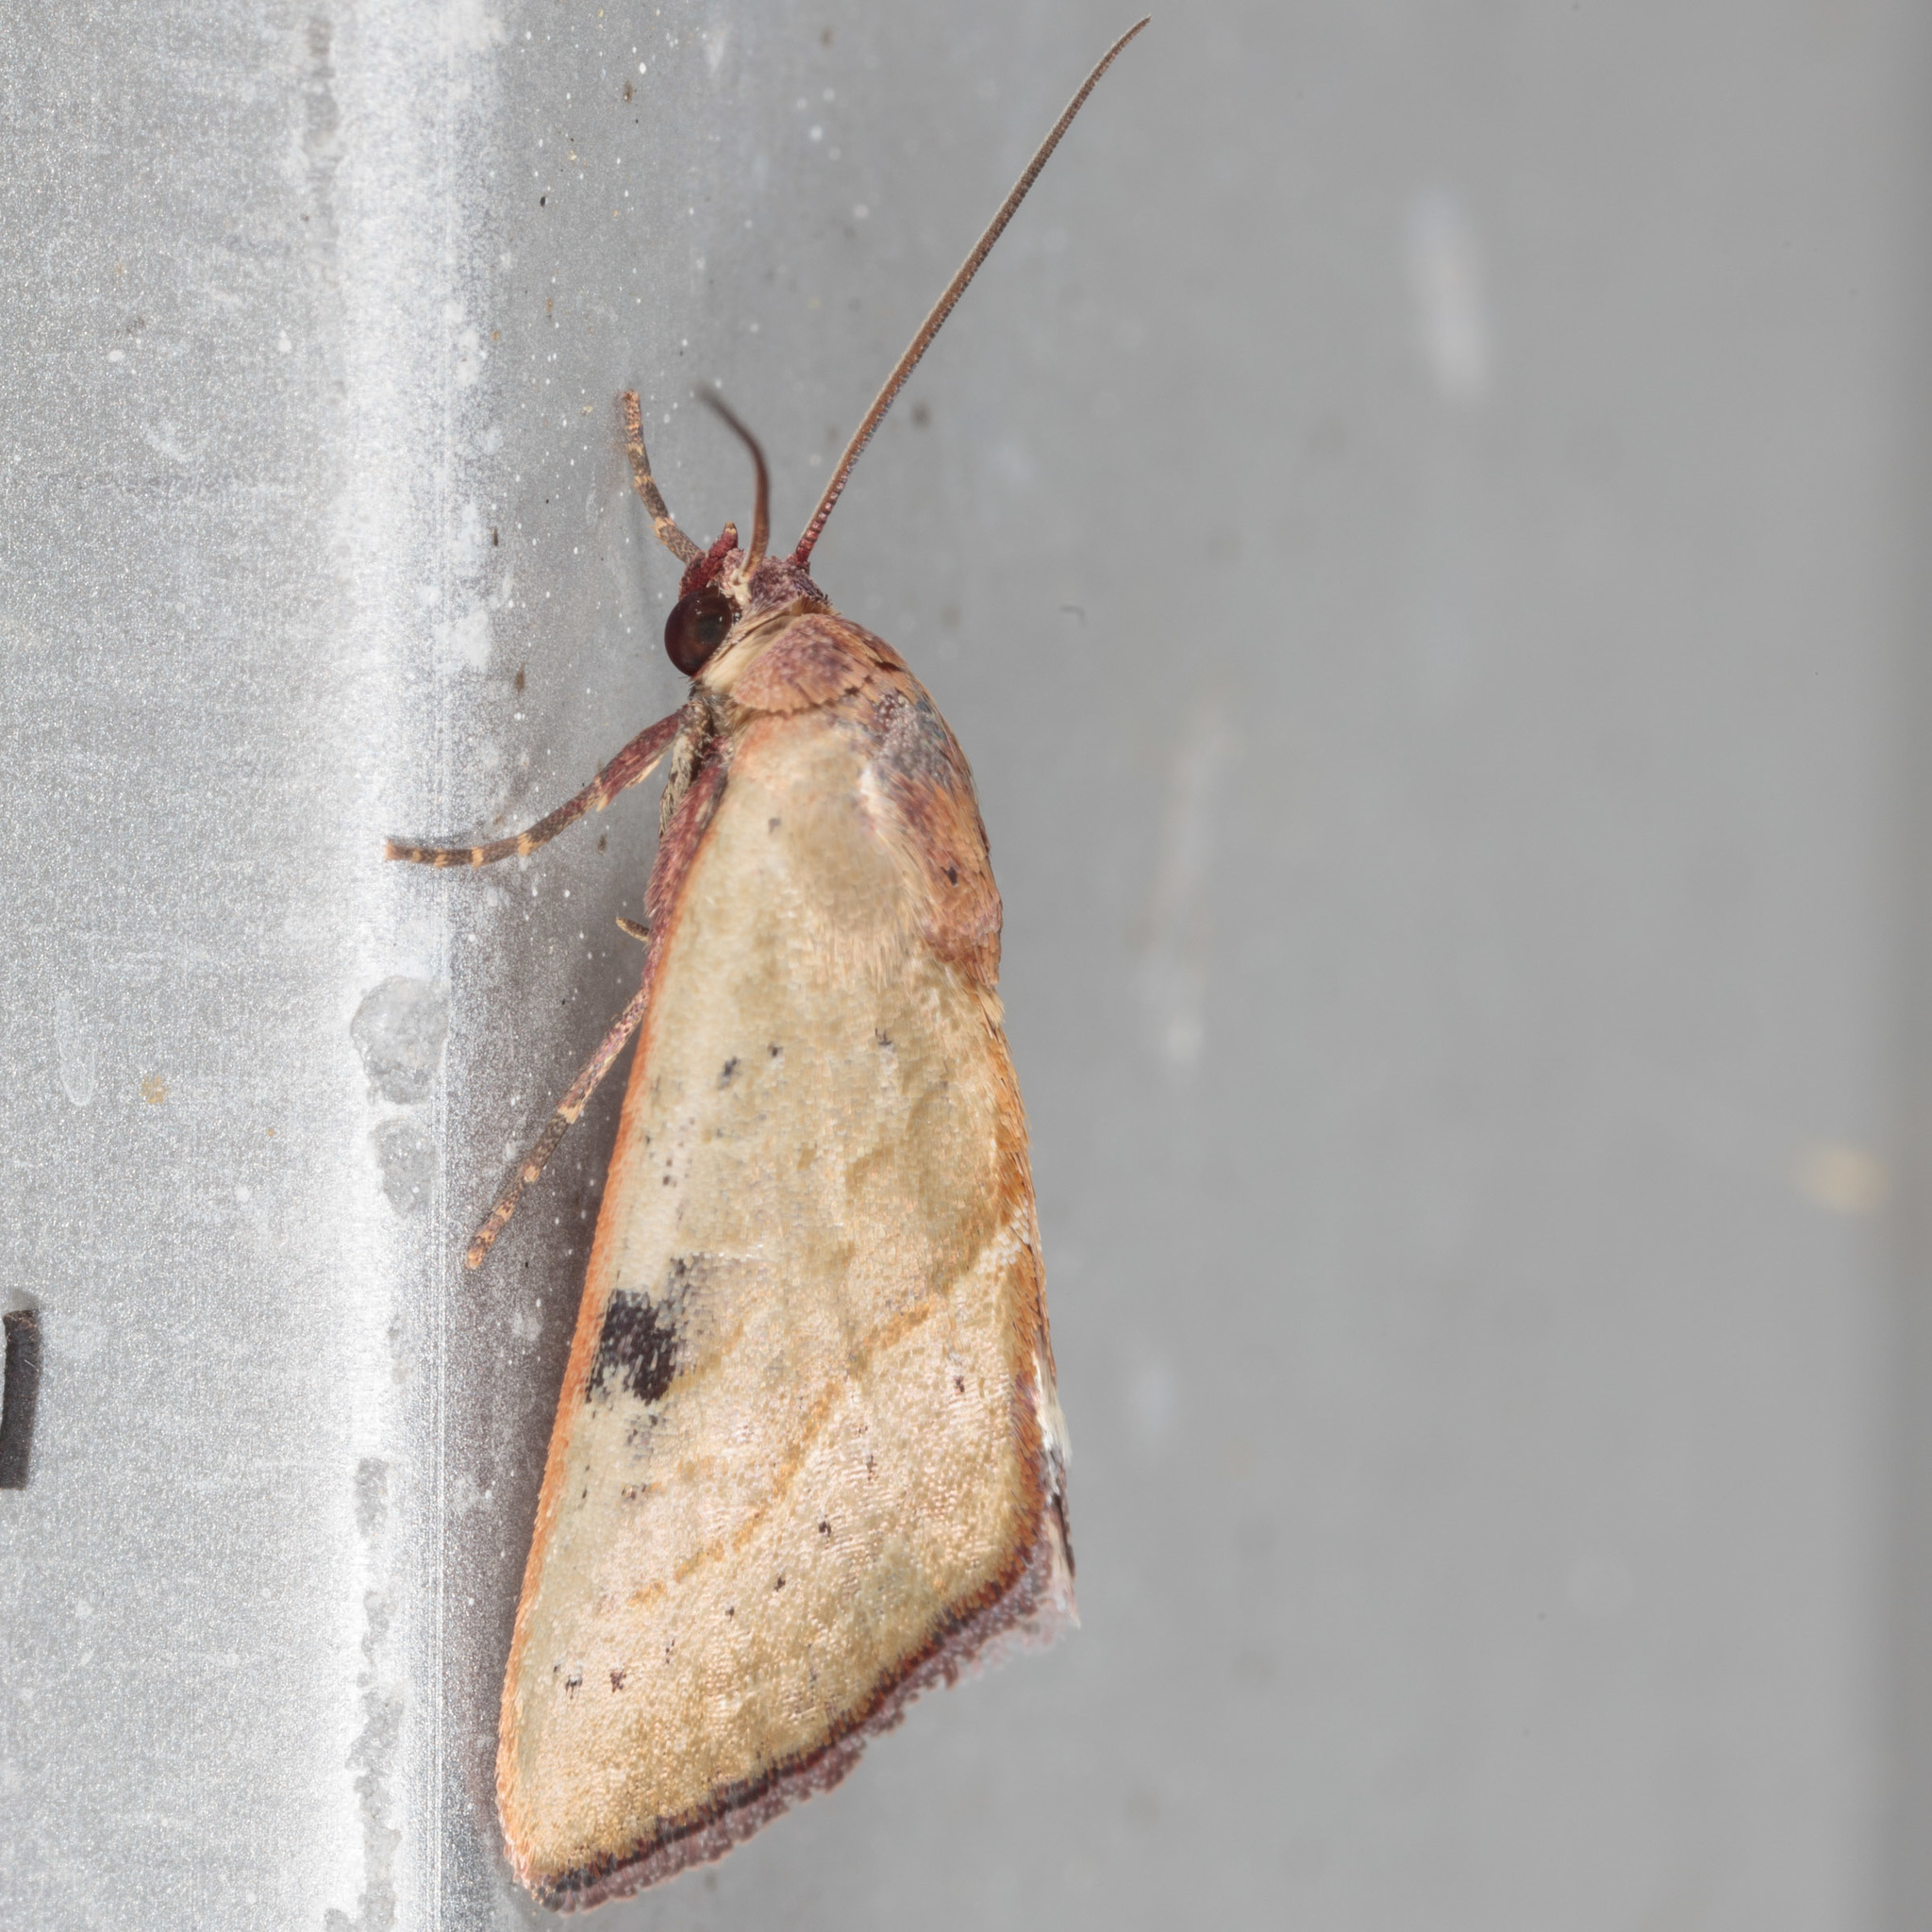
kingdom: Animalia
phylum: Arthropoda
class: Insecta
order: Lepidoptera
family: Noctuidae
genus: Galgula
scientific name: Galgula partita
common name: Wedgeling
